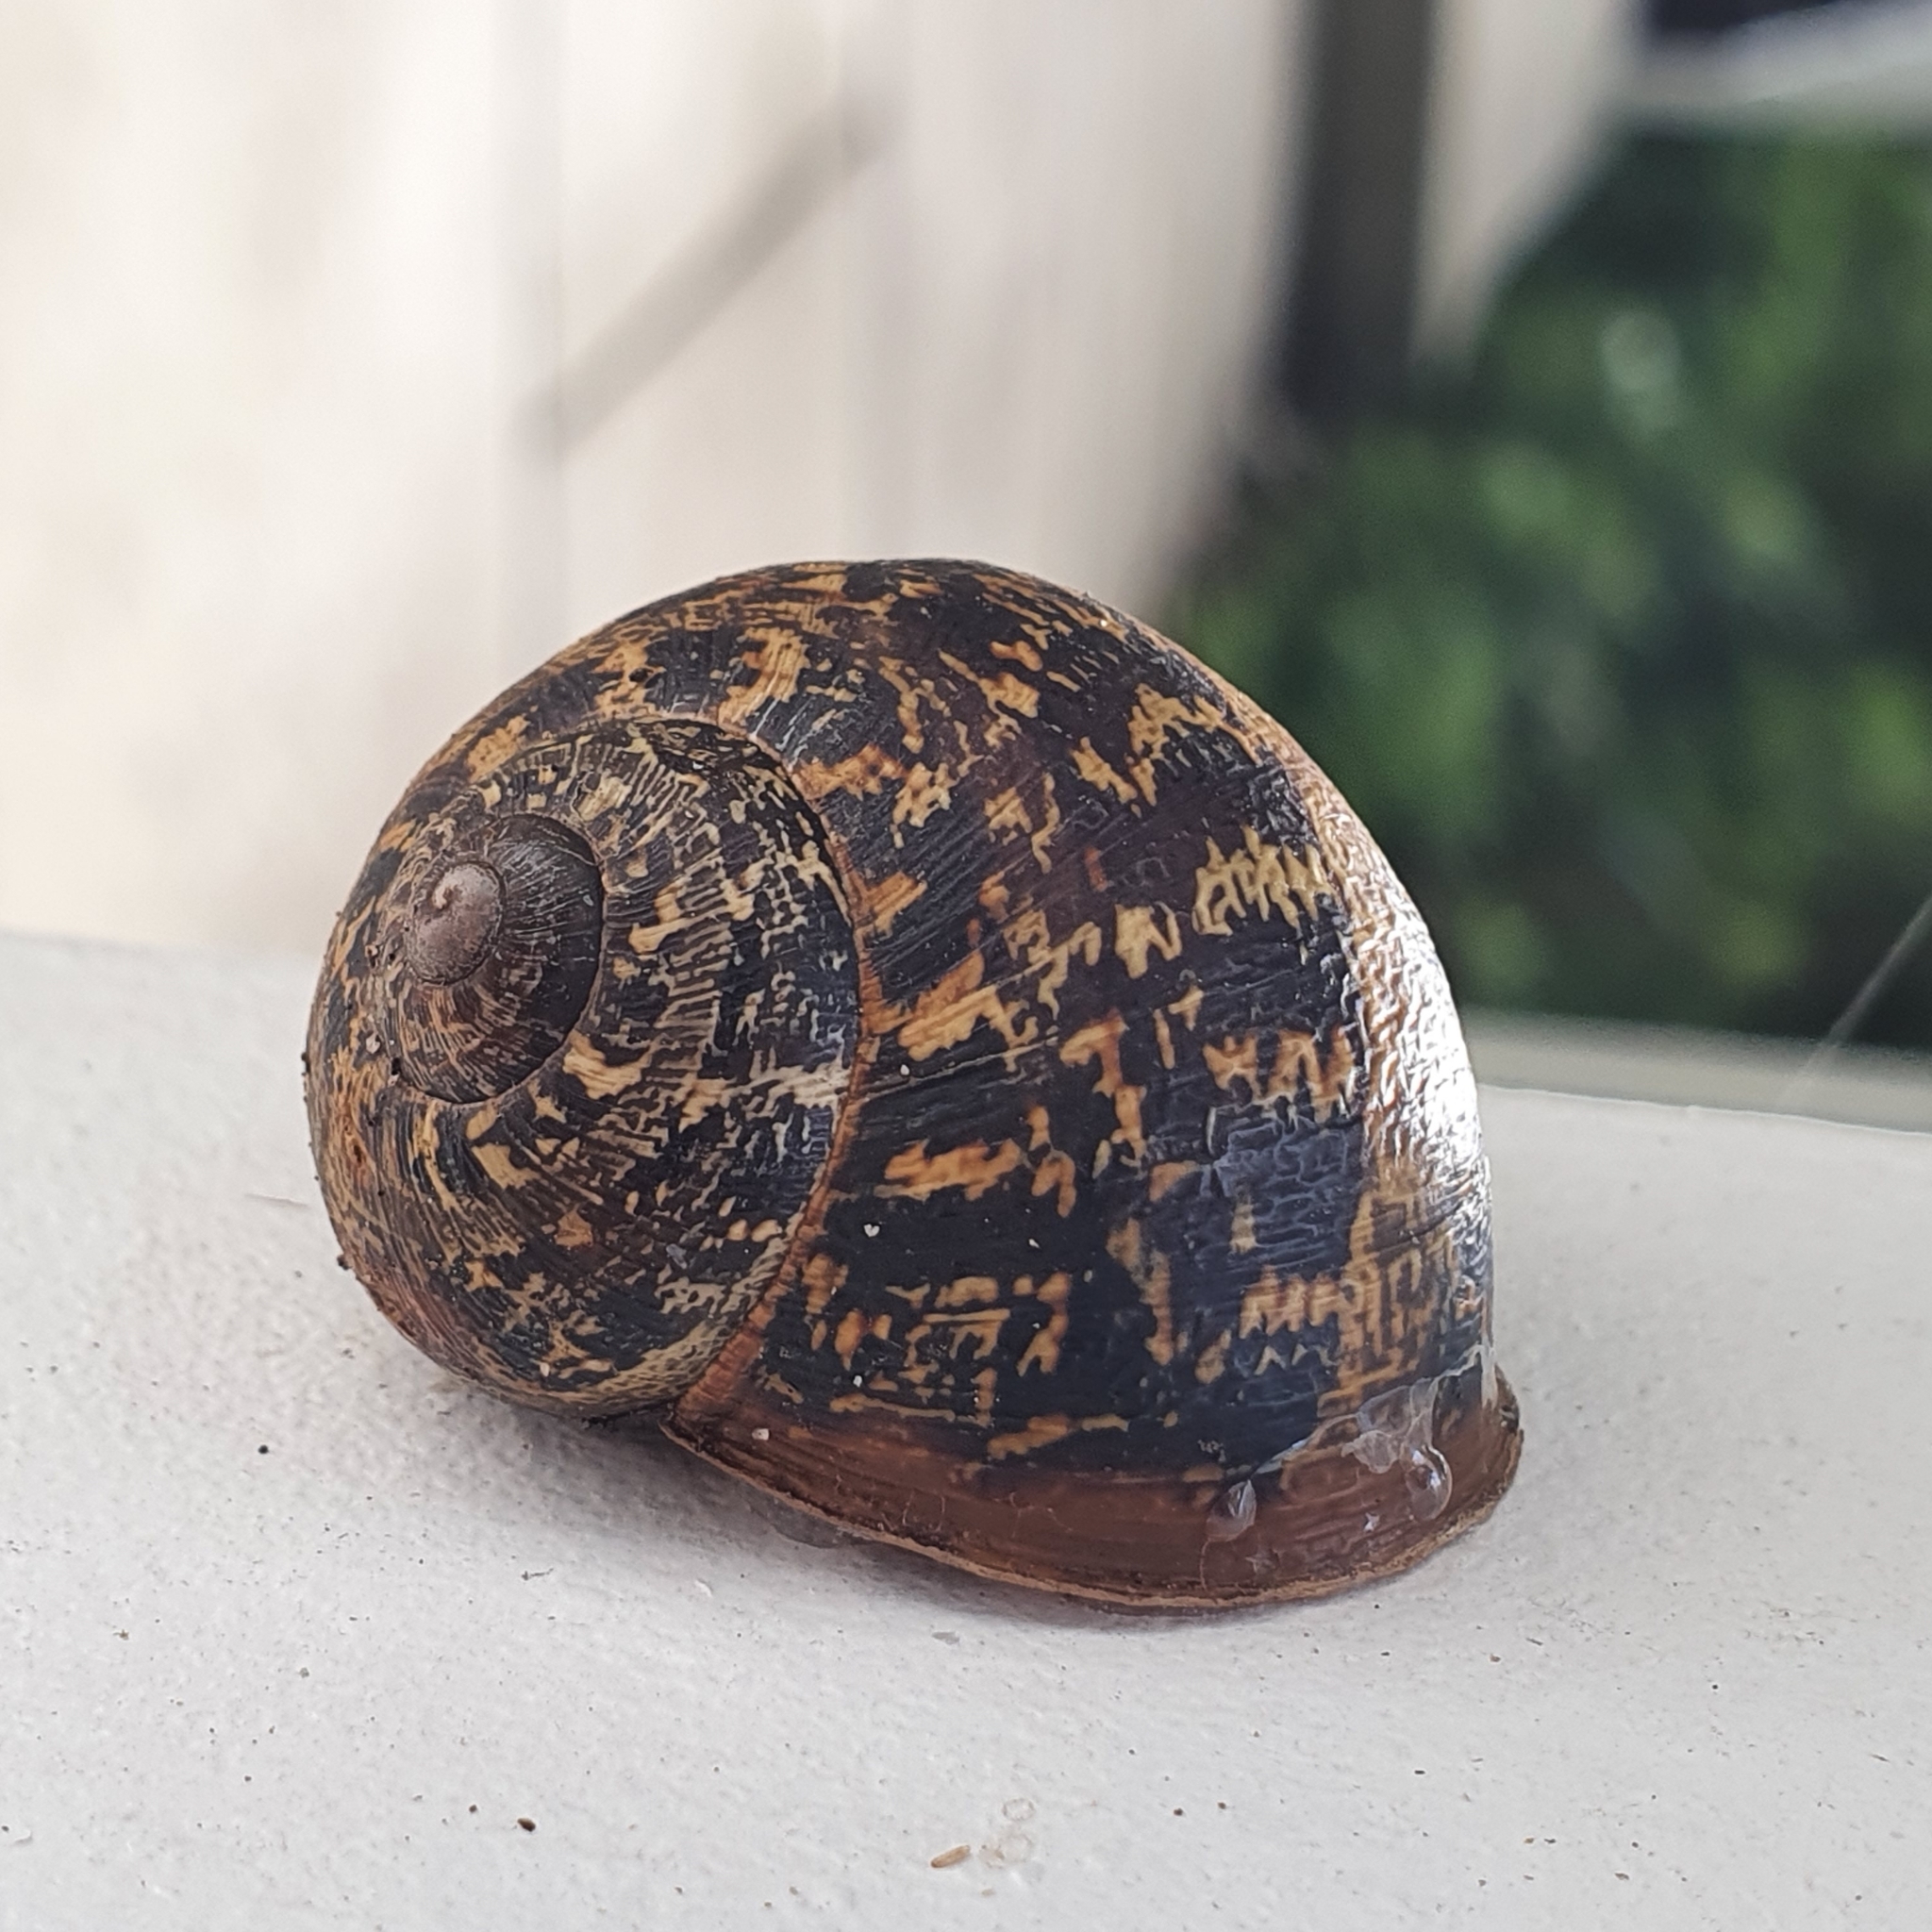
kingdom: Animalia
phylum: Mollusca
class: Gastropoda
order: Stylommatophora
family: Helicidae
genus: Cornu
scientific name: Cornu aspersum
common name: Brown garden snail
